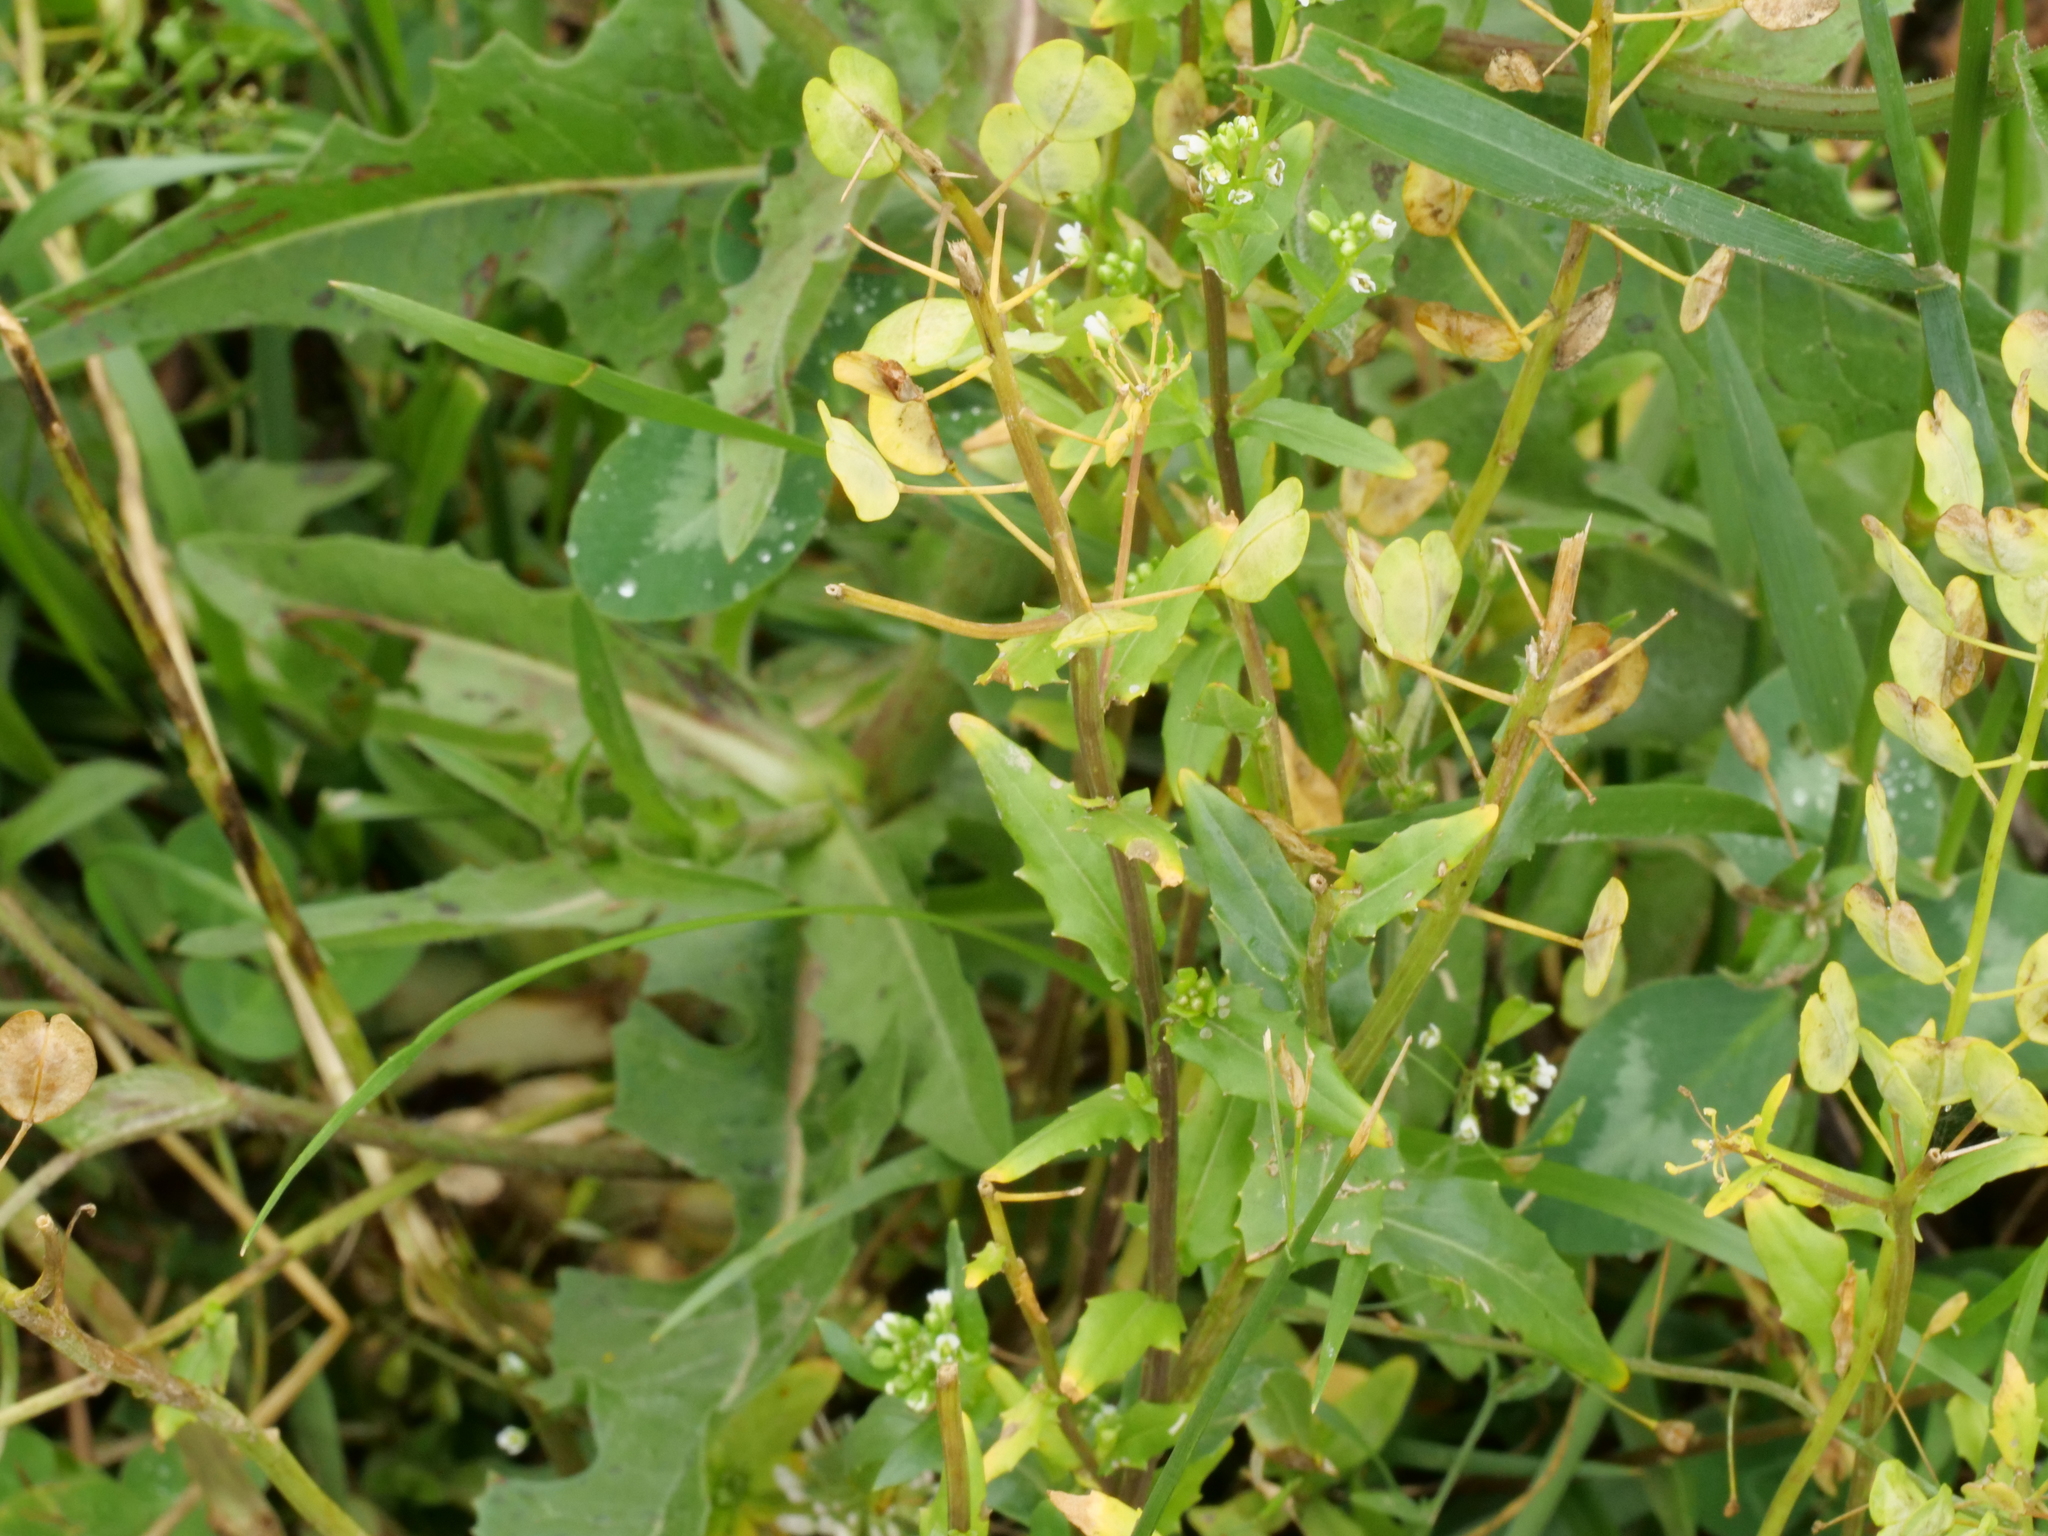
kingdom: Plantae
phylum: Tracheophyta
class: Magnoliopsida
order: Brassicales
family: Brassicaceae
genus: Thlaspi
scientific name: Thlaspi arvense
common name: Field pennycress
